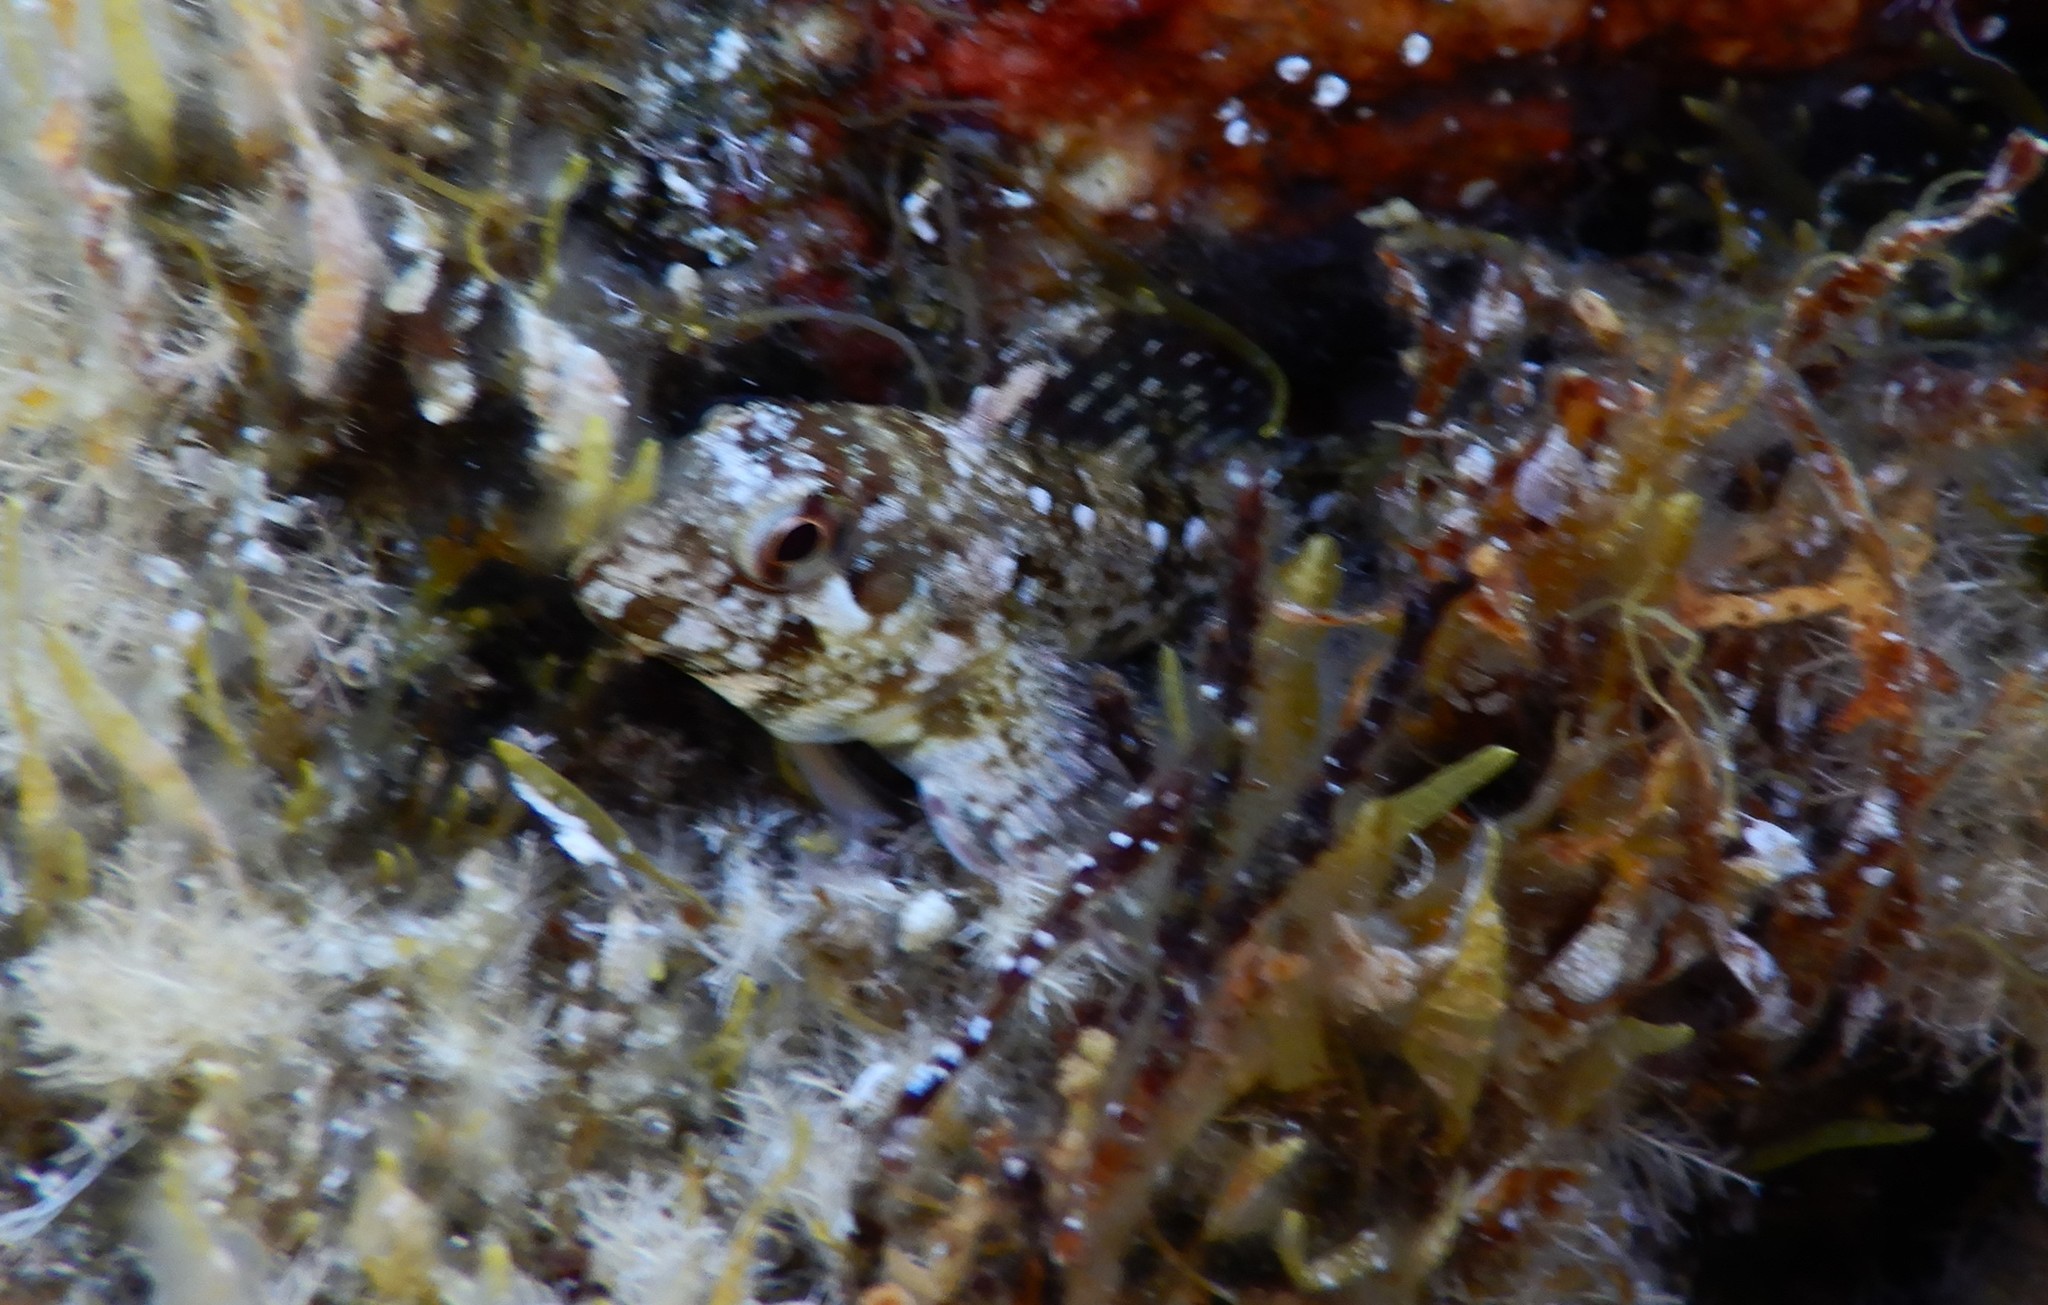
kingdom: Animalia
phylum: Chordata
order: Perciformes
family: Blenniidae
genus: Lipophrys
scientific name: Lipophrys trigloides
